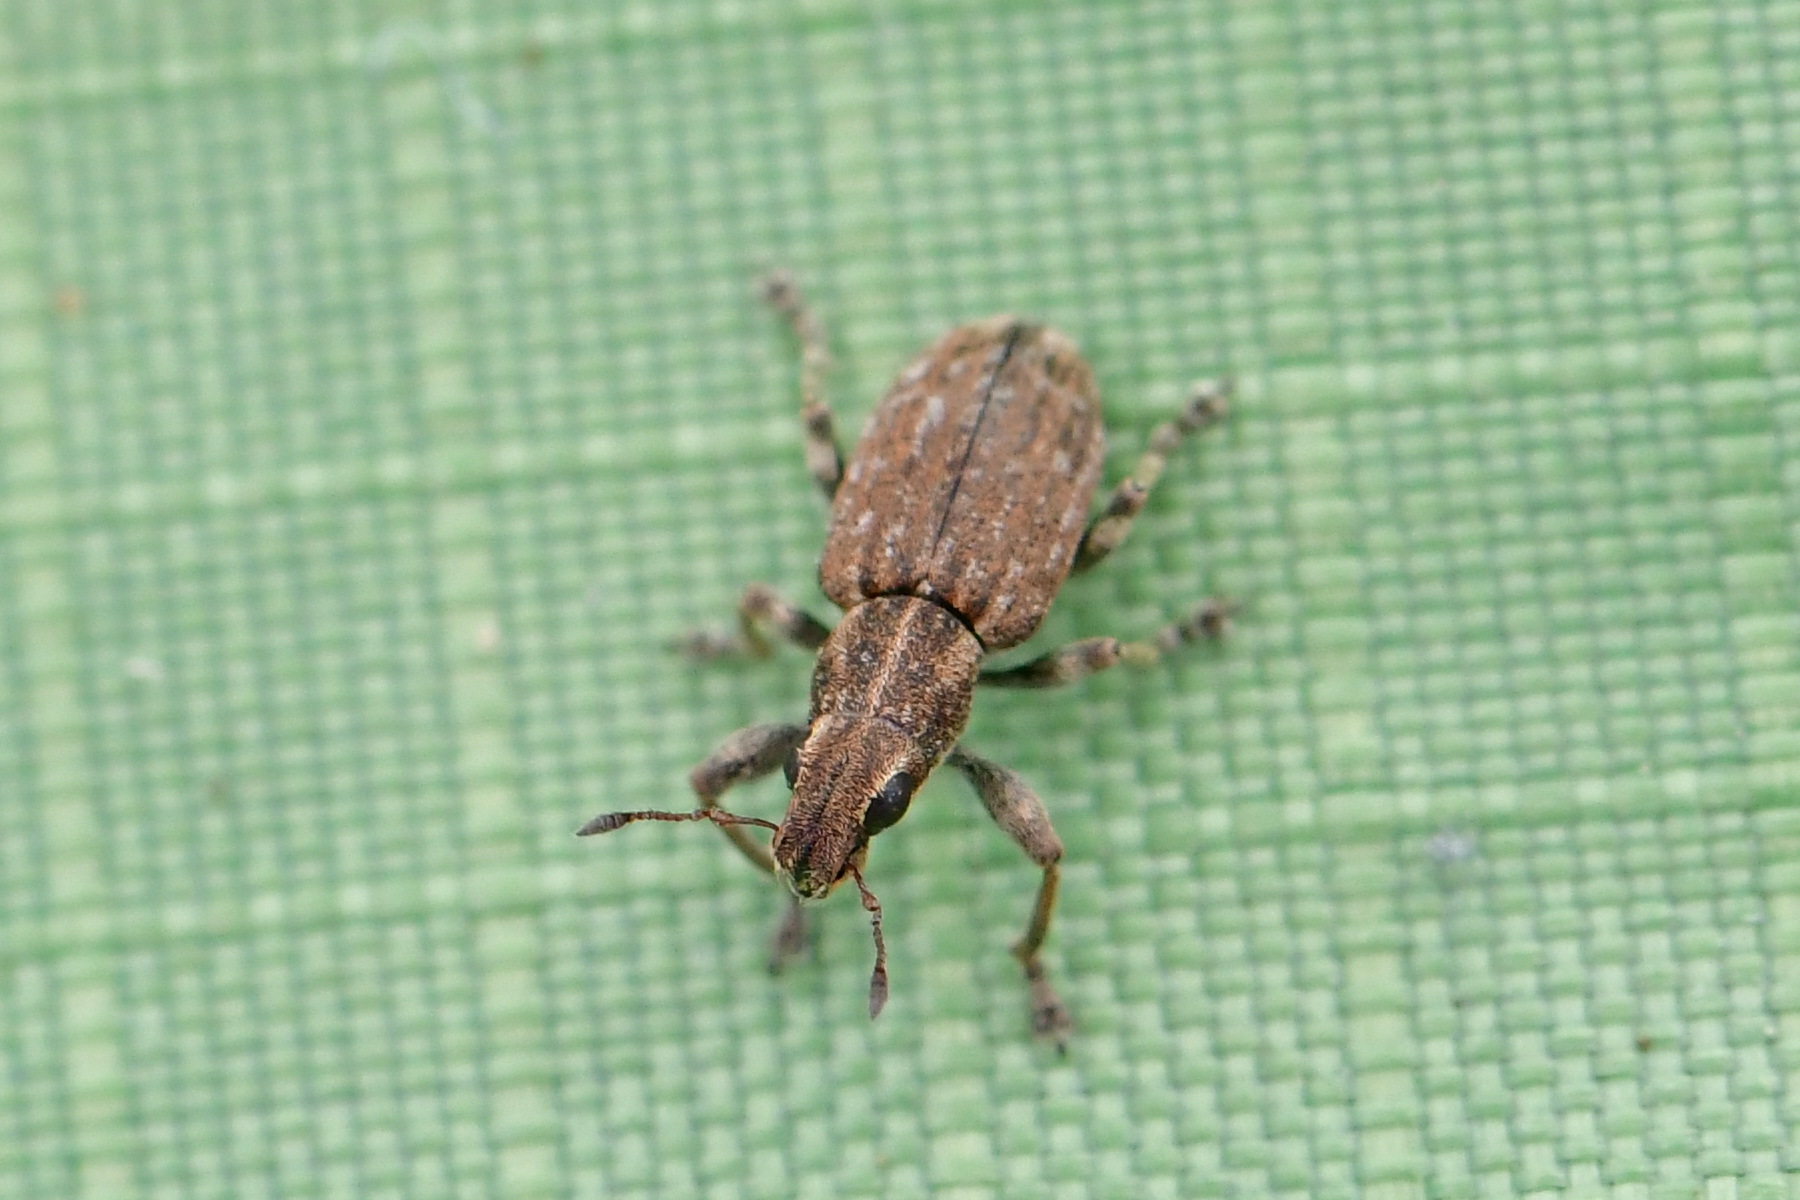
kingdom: Animalia
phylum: Arthropoda
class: Insecta
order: Coleoptera
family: Curculionidae
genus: Sitona
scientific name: Sitona obsoletus
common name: Weevil
